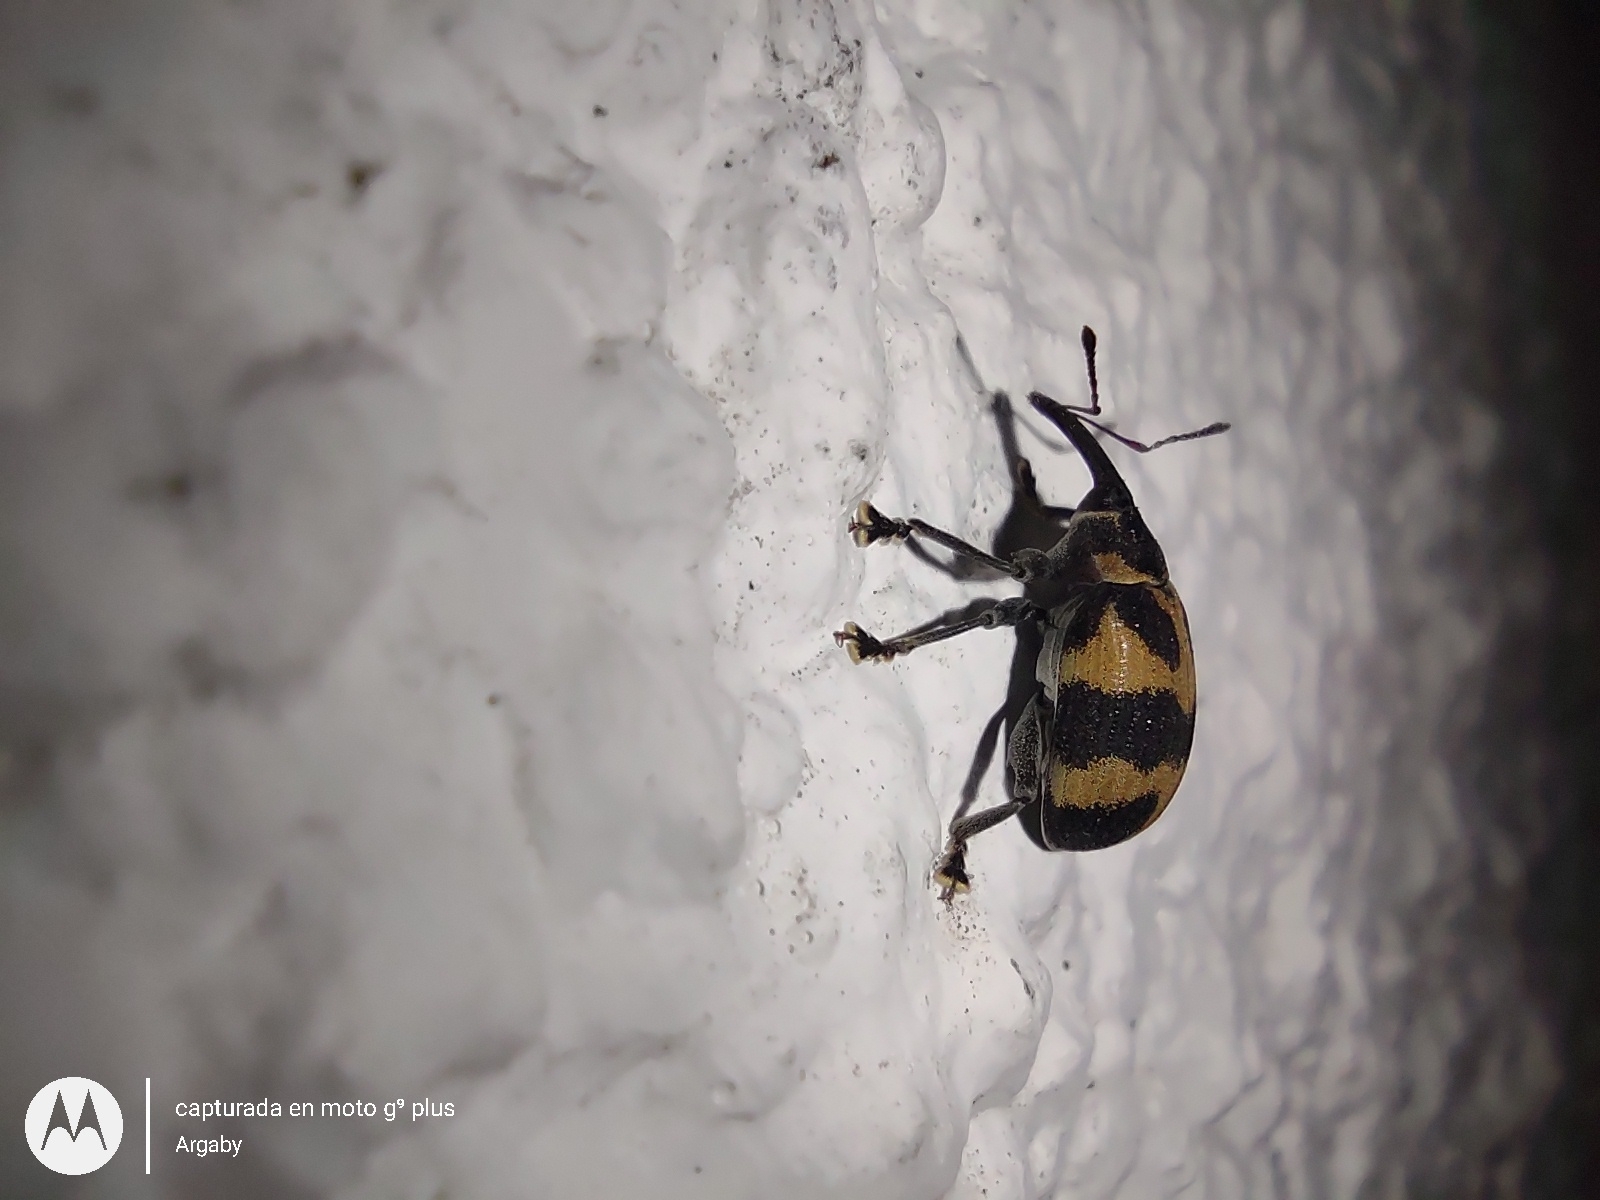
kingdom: Animalia
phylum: Arthropoda
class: Insecta
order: Coleoptera
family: Curculionidae
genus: Anchylorhynchus
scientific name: Anchylorhynchus tremolerasi
